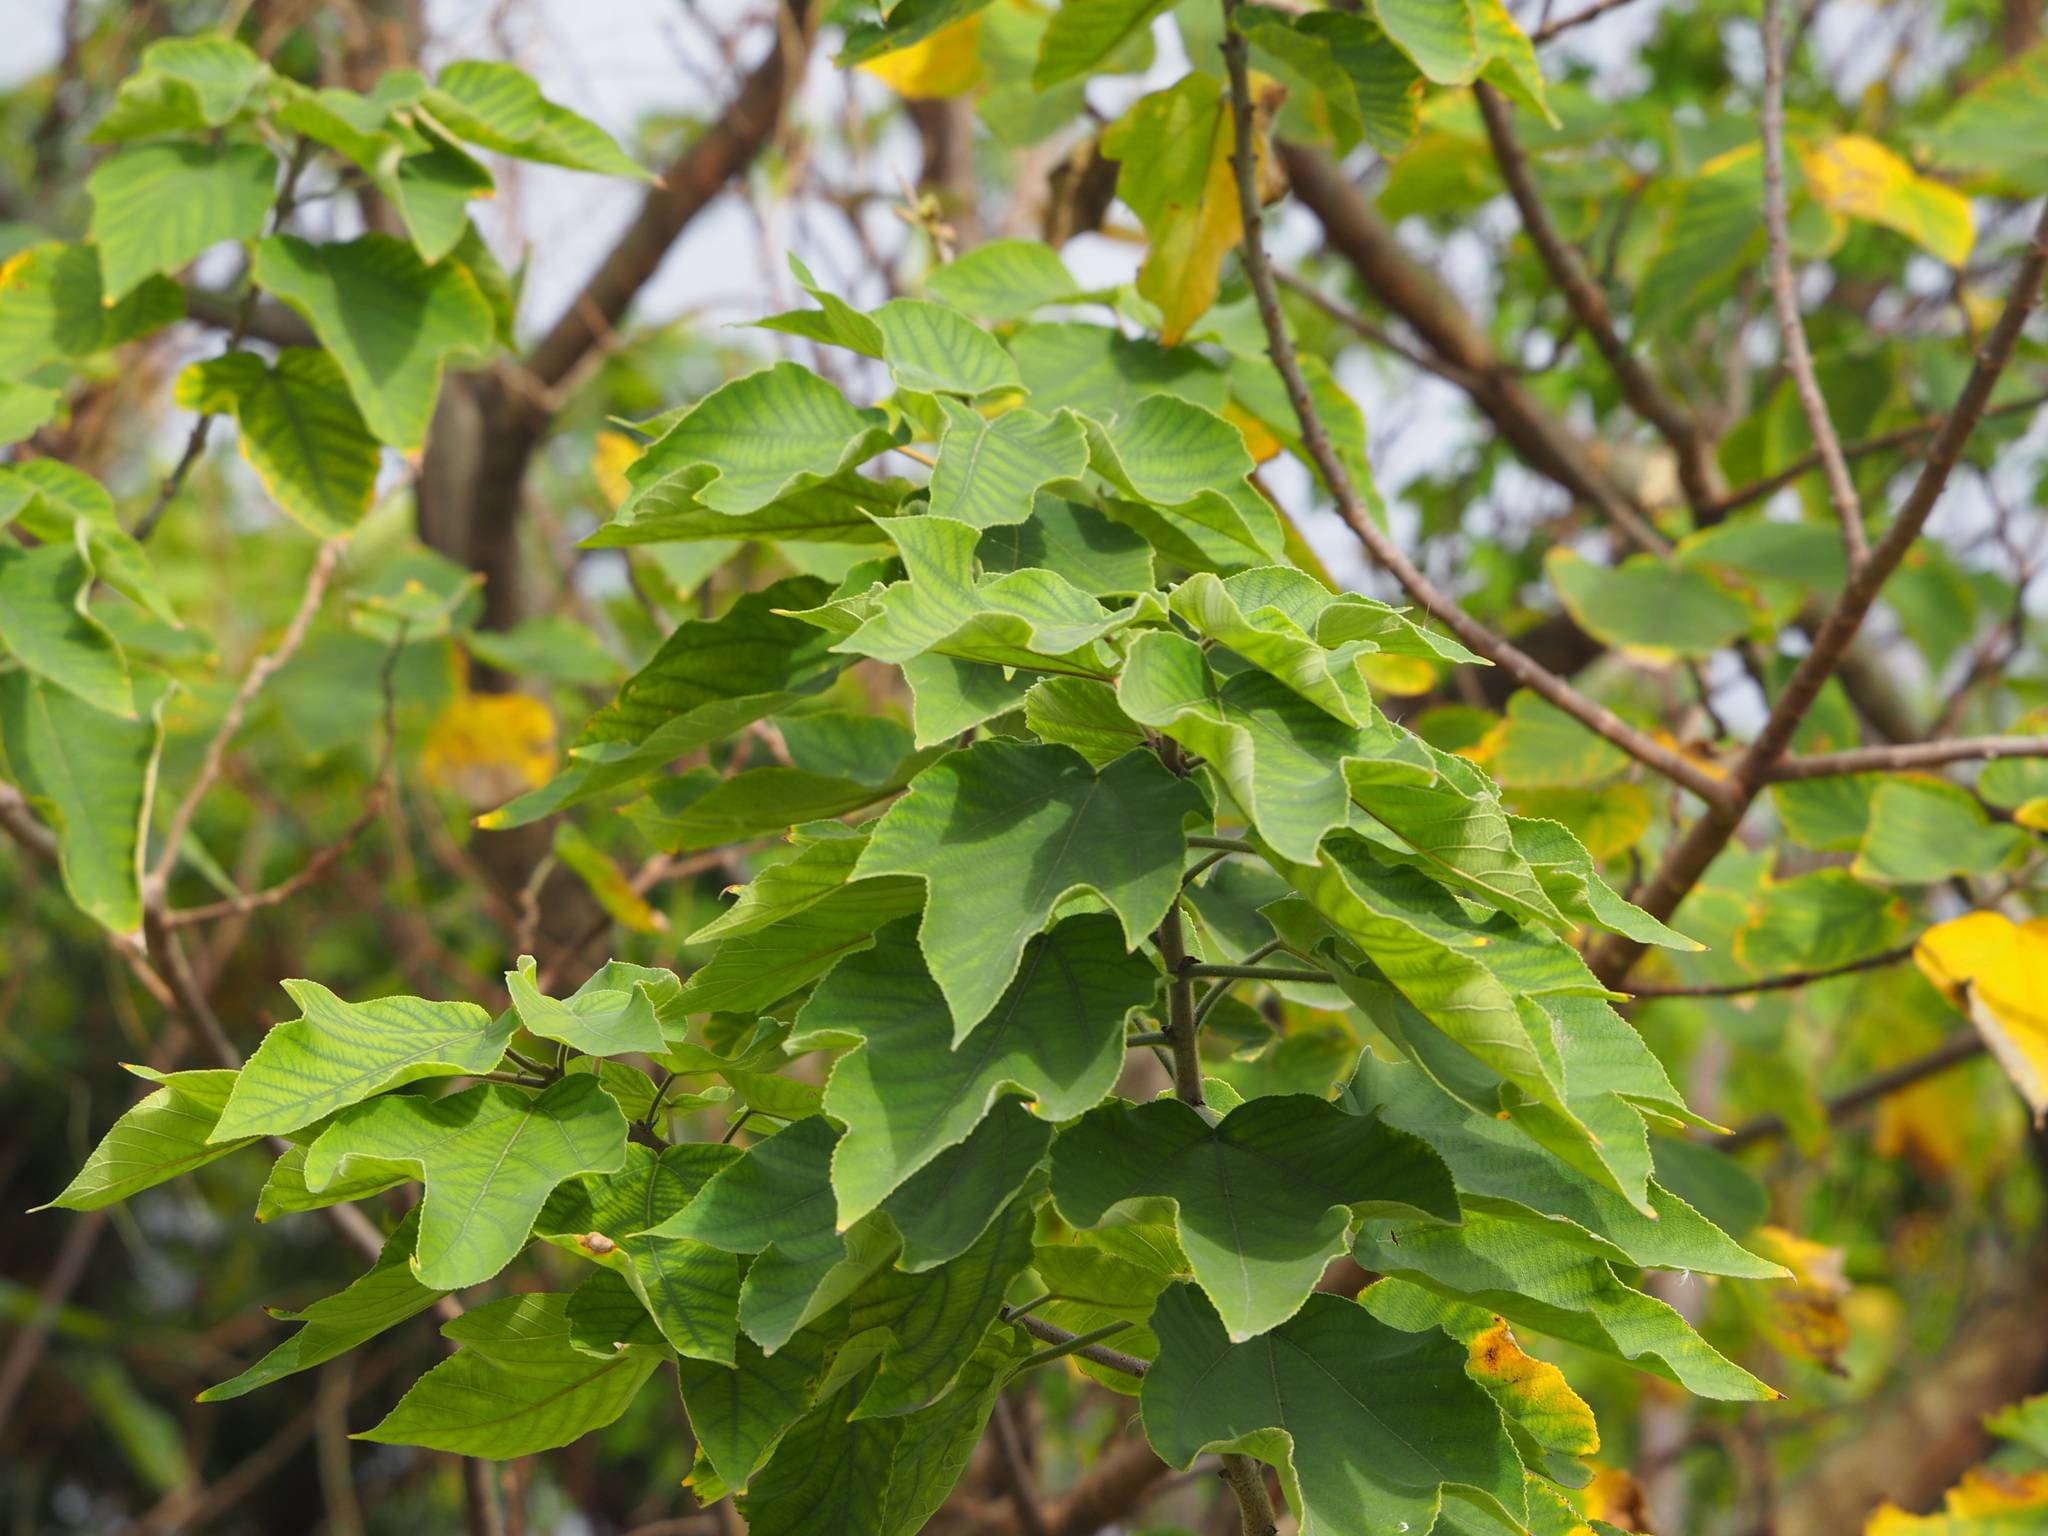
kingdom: Plantae
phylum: Tracheophyta
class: Magnoliopsida
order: Rosales
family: Moraceae
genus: Broussonetia
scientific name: Broussonetia papyrifera
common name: Paper mulberry
